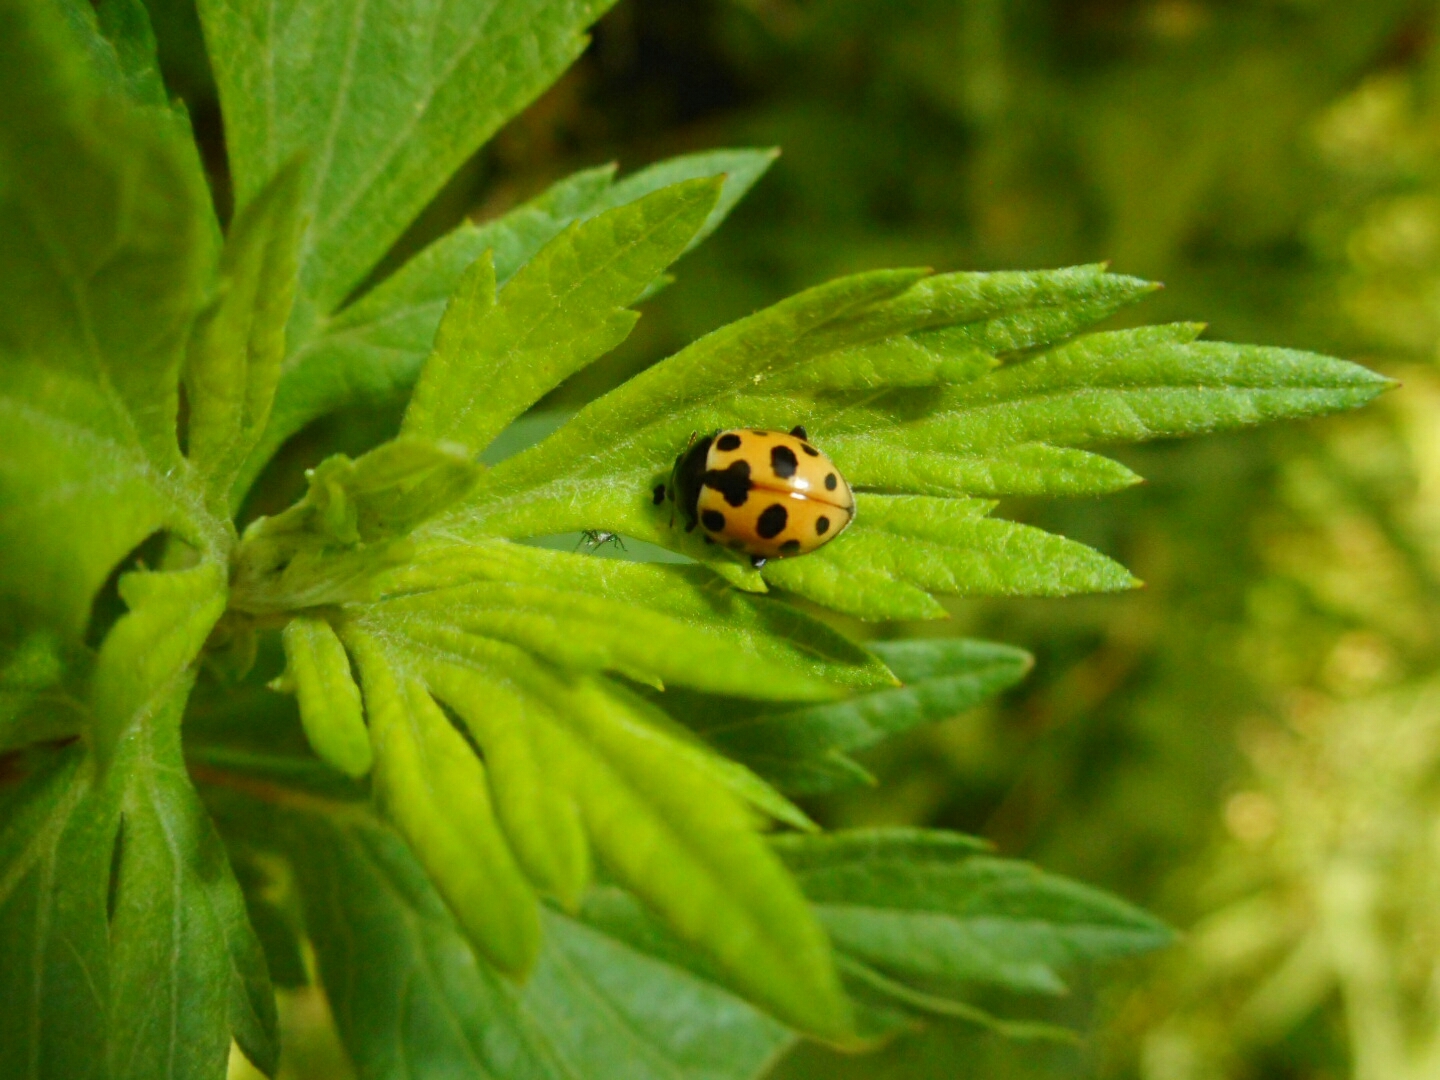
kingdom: Animalia
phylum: Arthropoda
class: Insecta
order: Coleoptera
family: Coccinellidae
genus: Ceratomegilla
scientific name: Ceratomegilla notata
